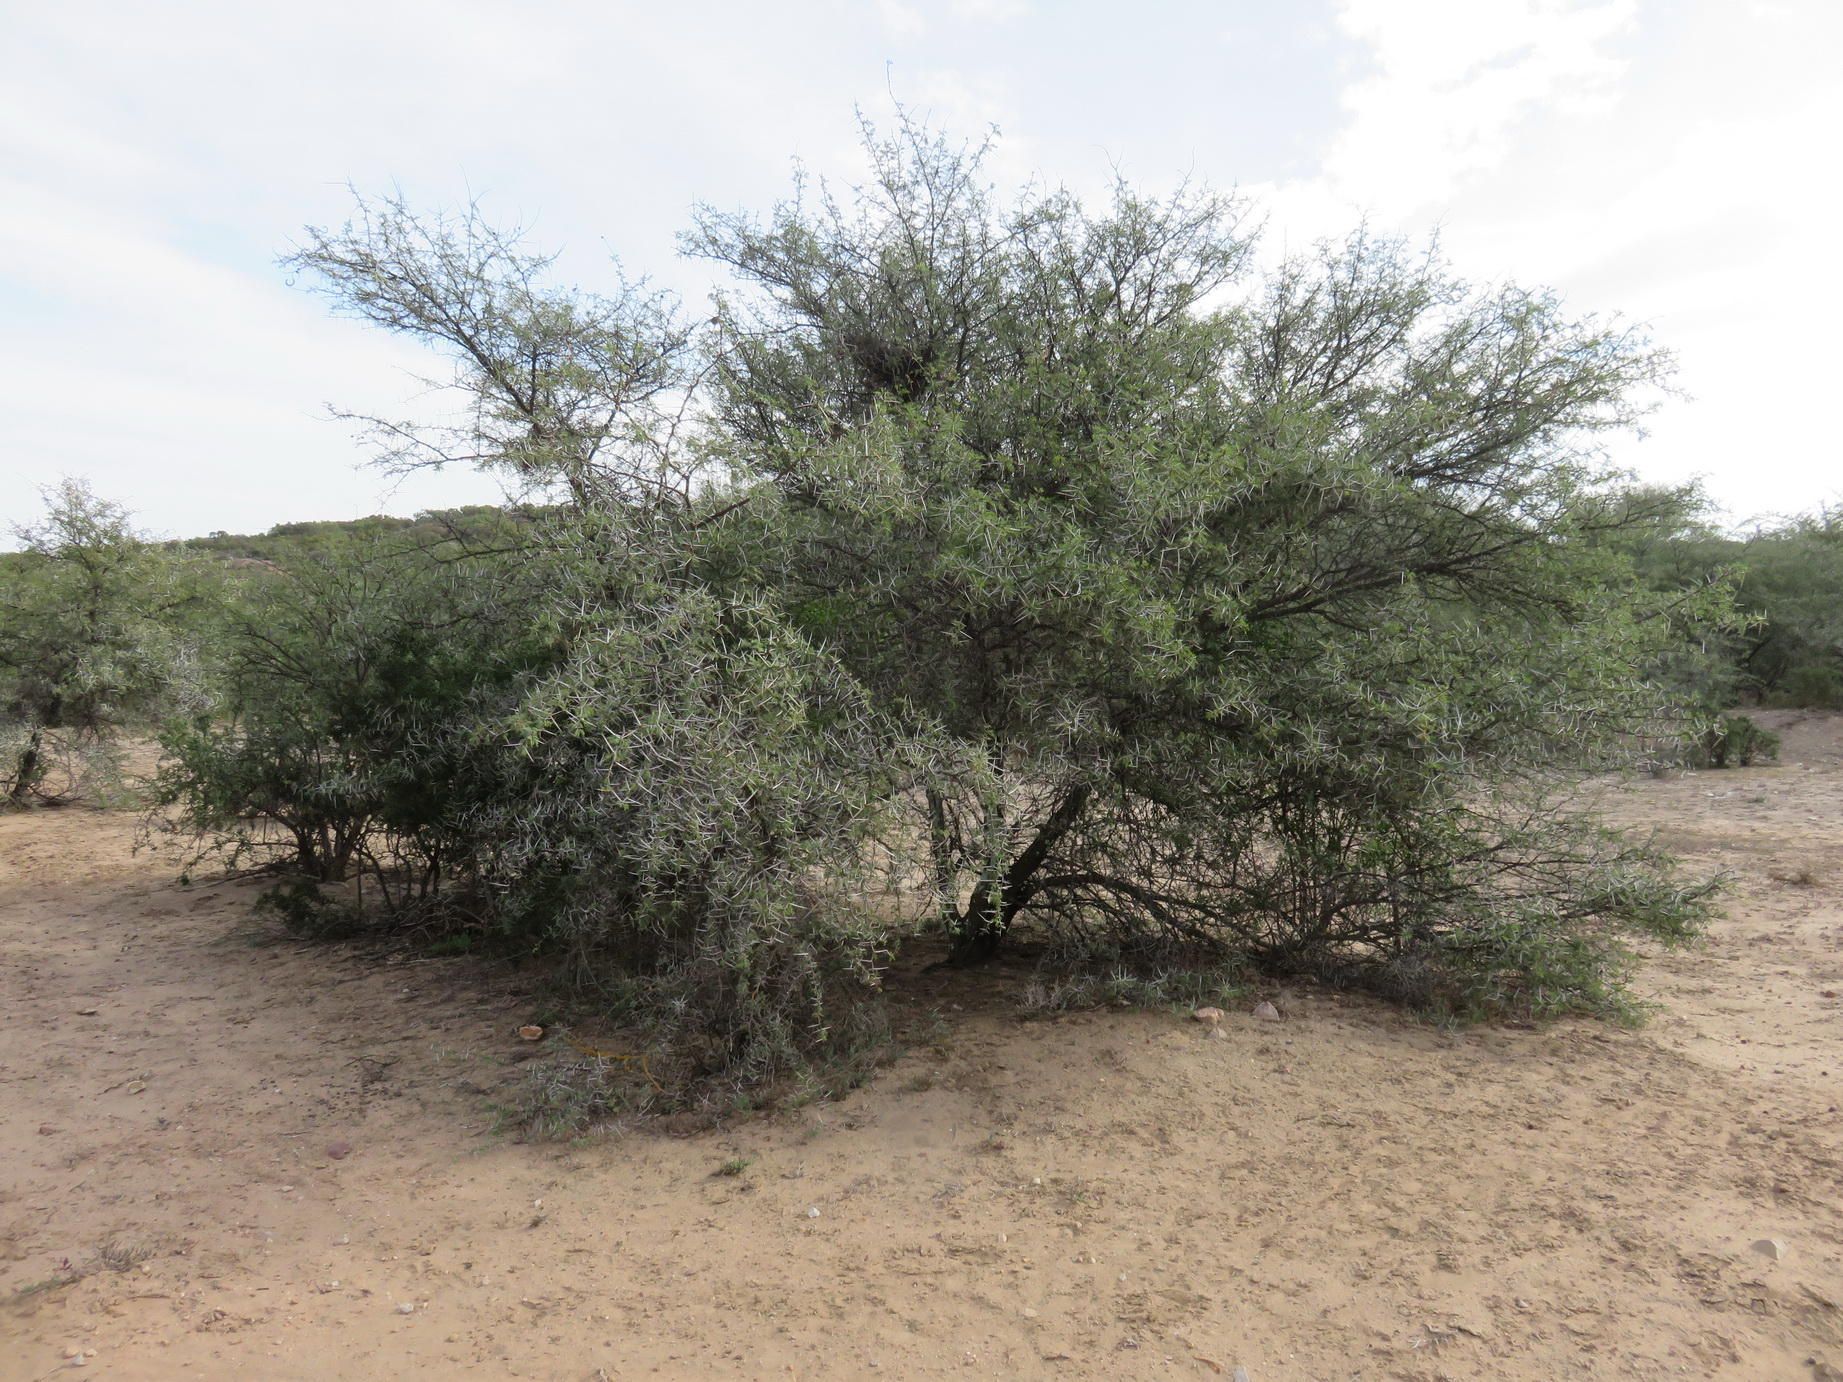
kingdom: Plantae
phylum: Tracheophyta
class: Magnoliopsida
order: Fabales
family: Fabaceae
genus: Vachellia
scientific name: Vachellia karroo
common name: Sweet thorn
